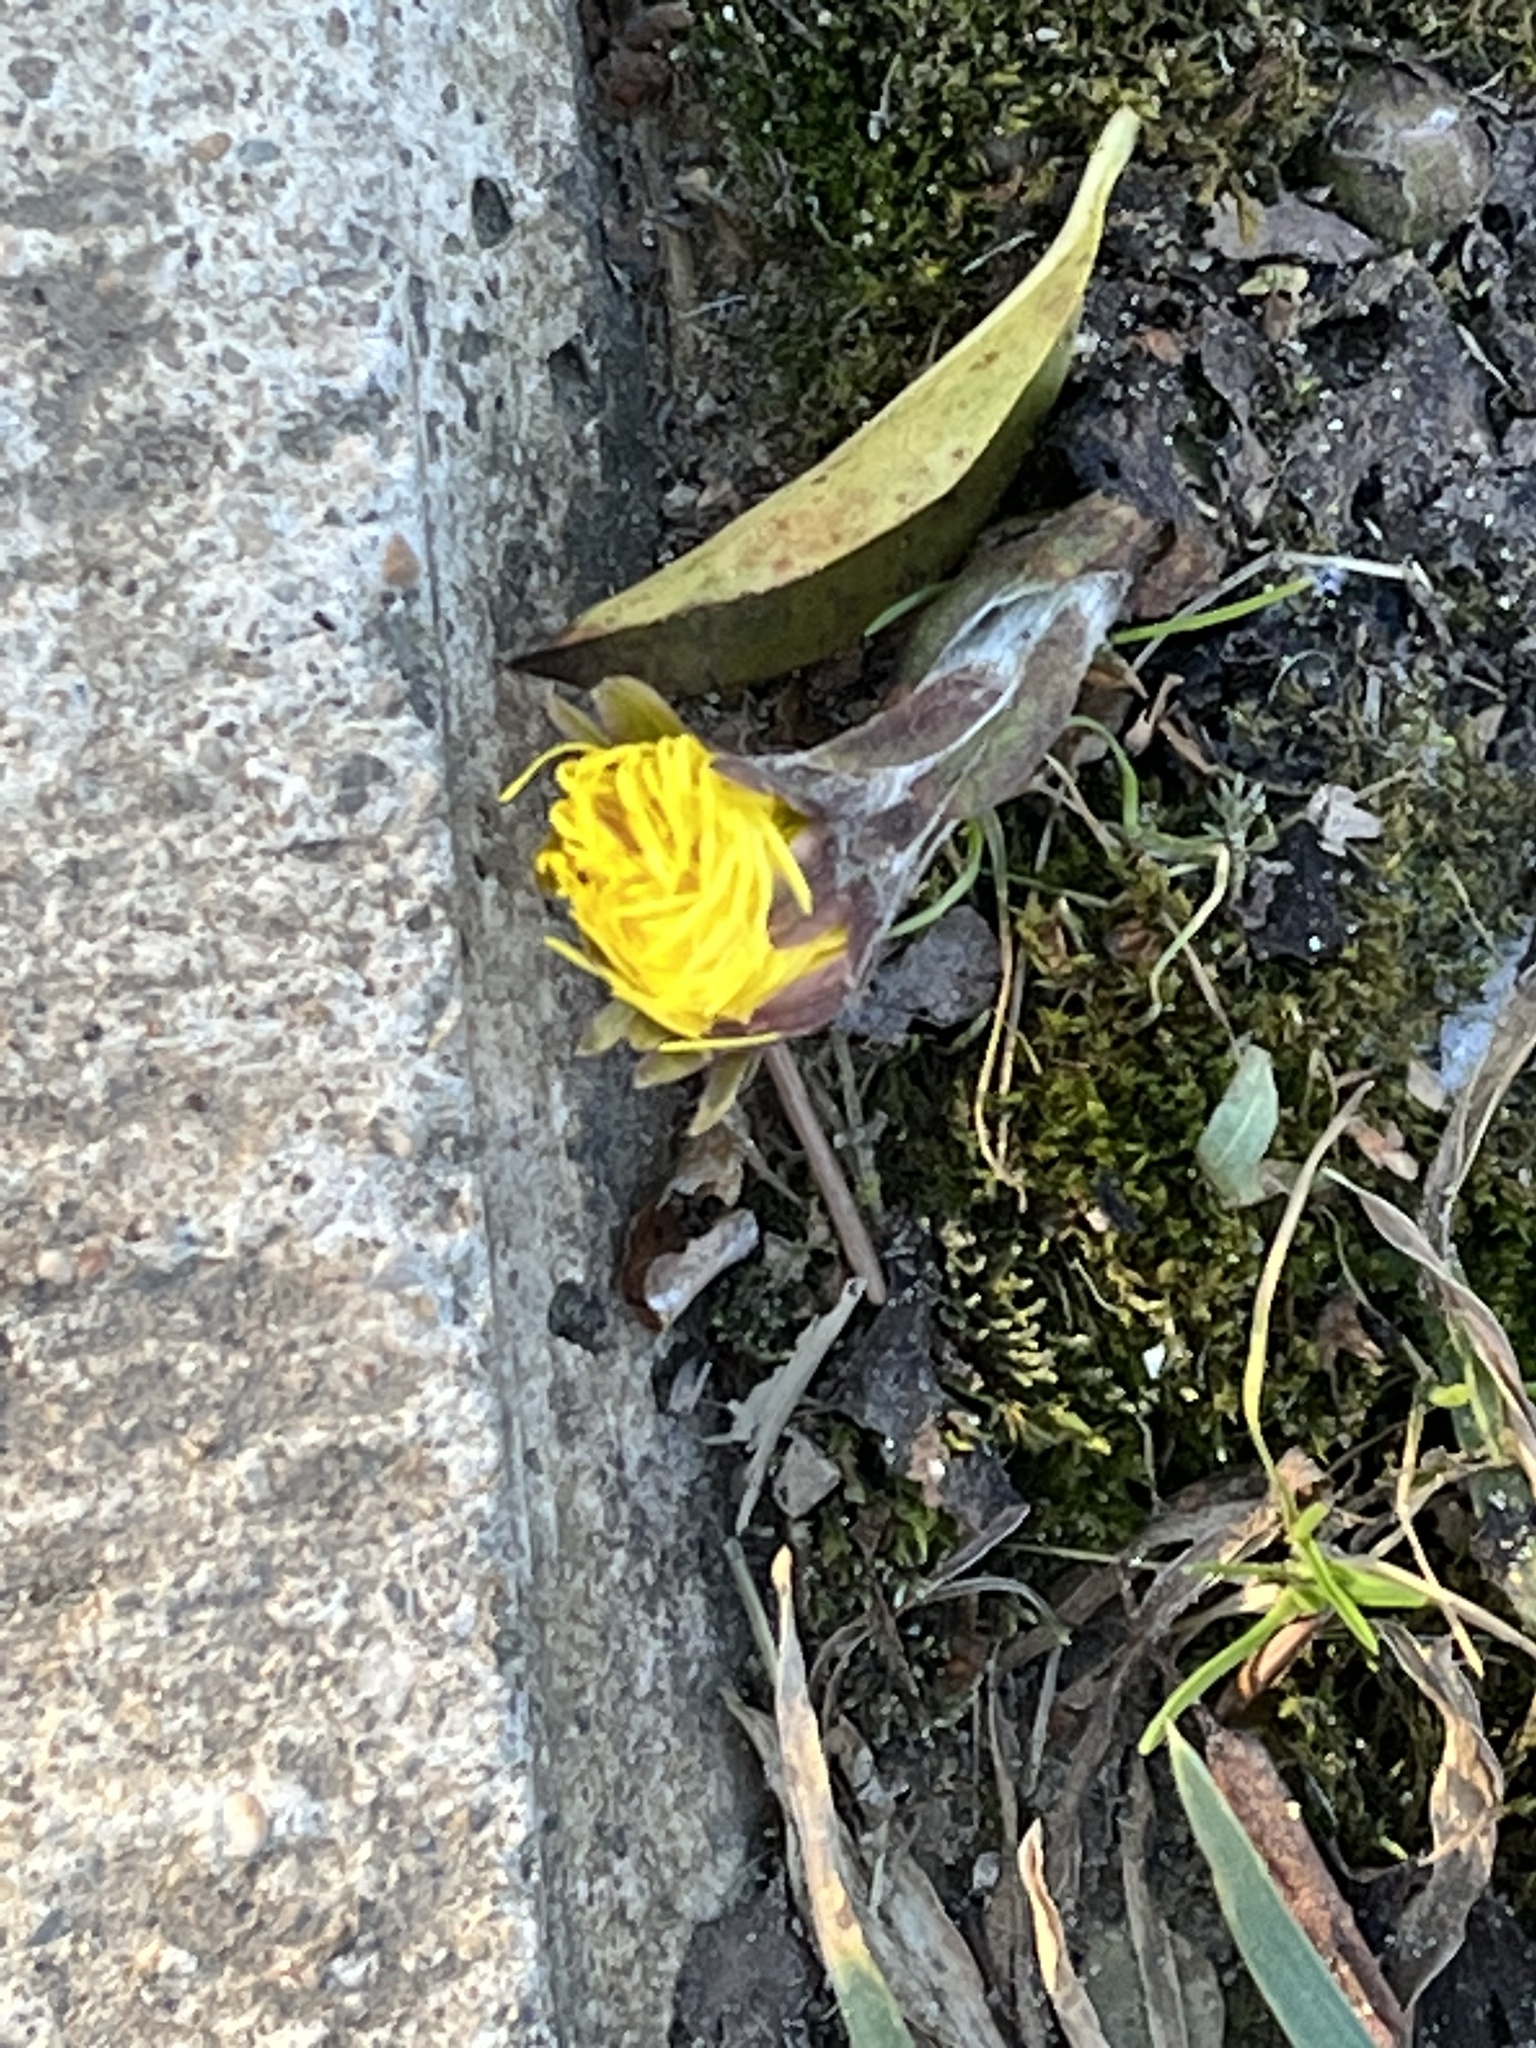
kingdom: Plantae
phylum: Tracheophyta
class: Magnoliopsida
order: Asterales
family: Asteraceae
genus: Tussilago
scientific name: Tussilago farfara
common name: Coltsfoot
